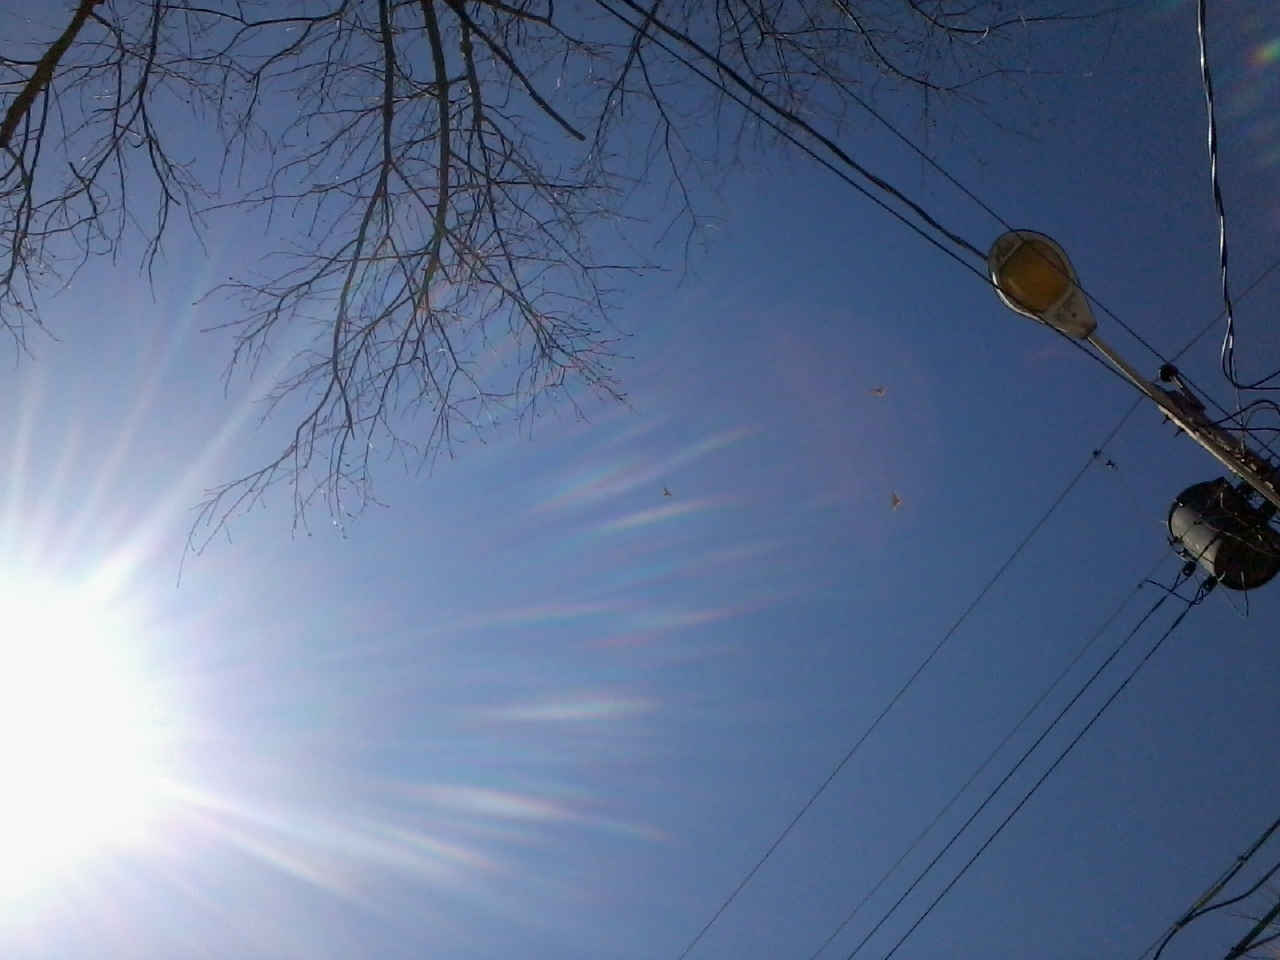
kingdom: Animalia
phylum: Chordata
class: Aves
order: Accipitriformes
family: Accipitridae
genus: Buteo
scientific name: Buteo jamaicensis
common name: Red-tailed hawk
